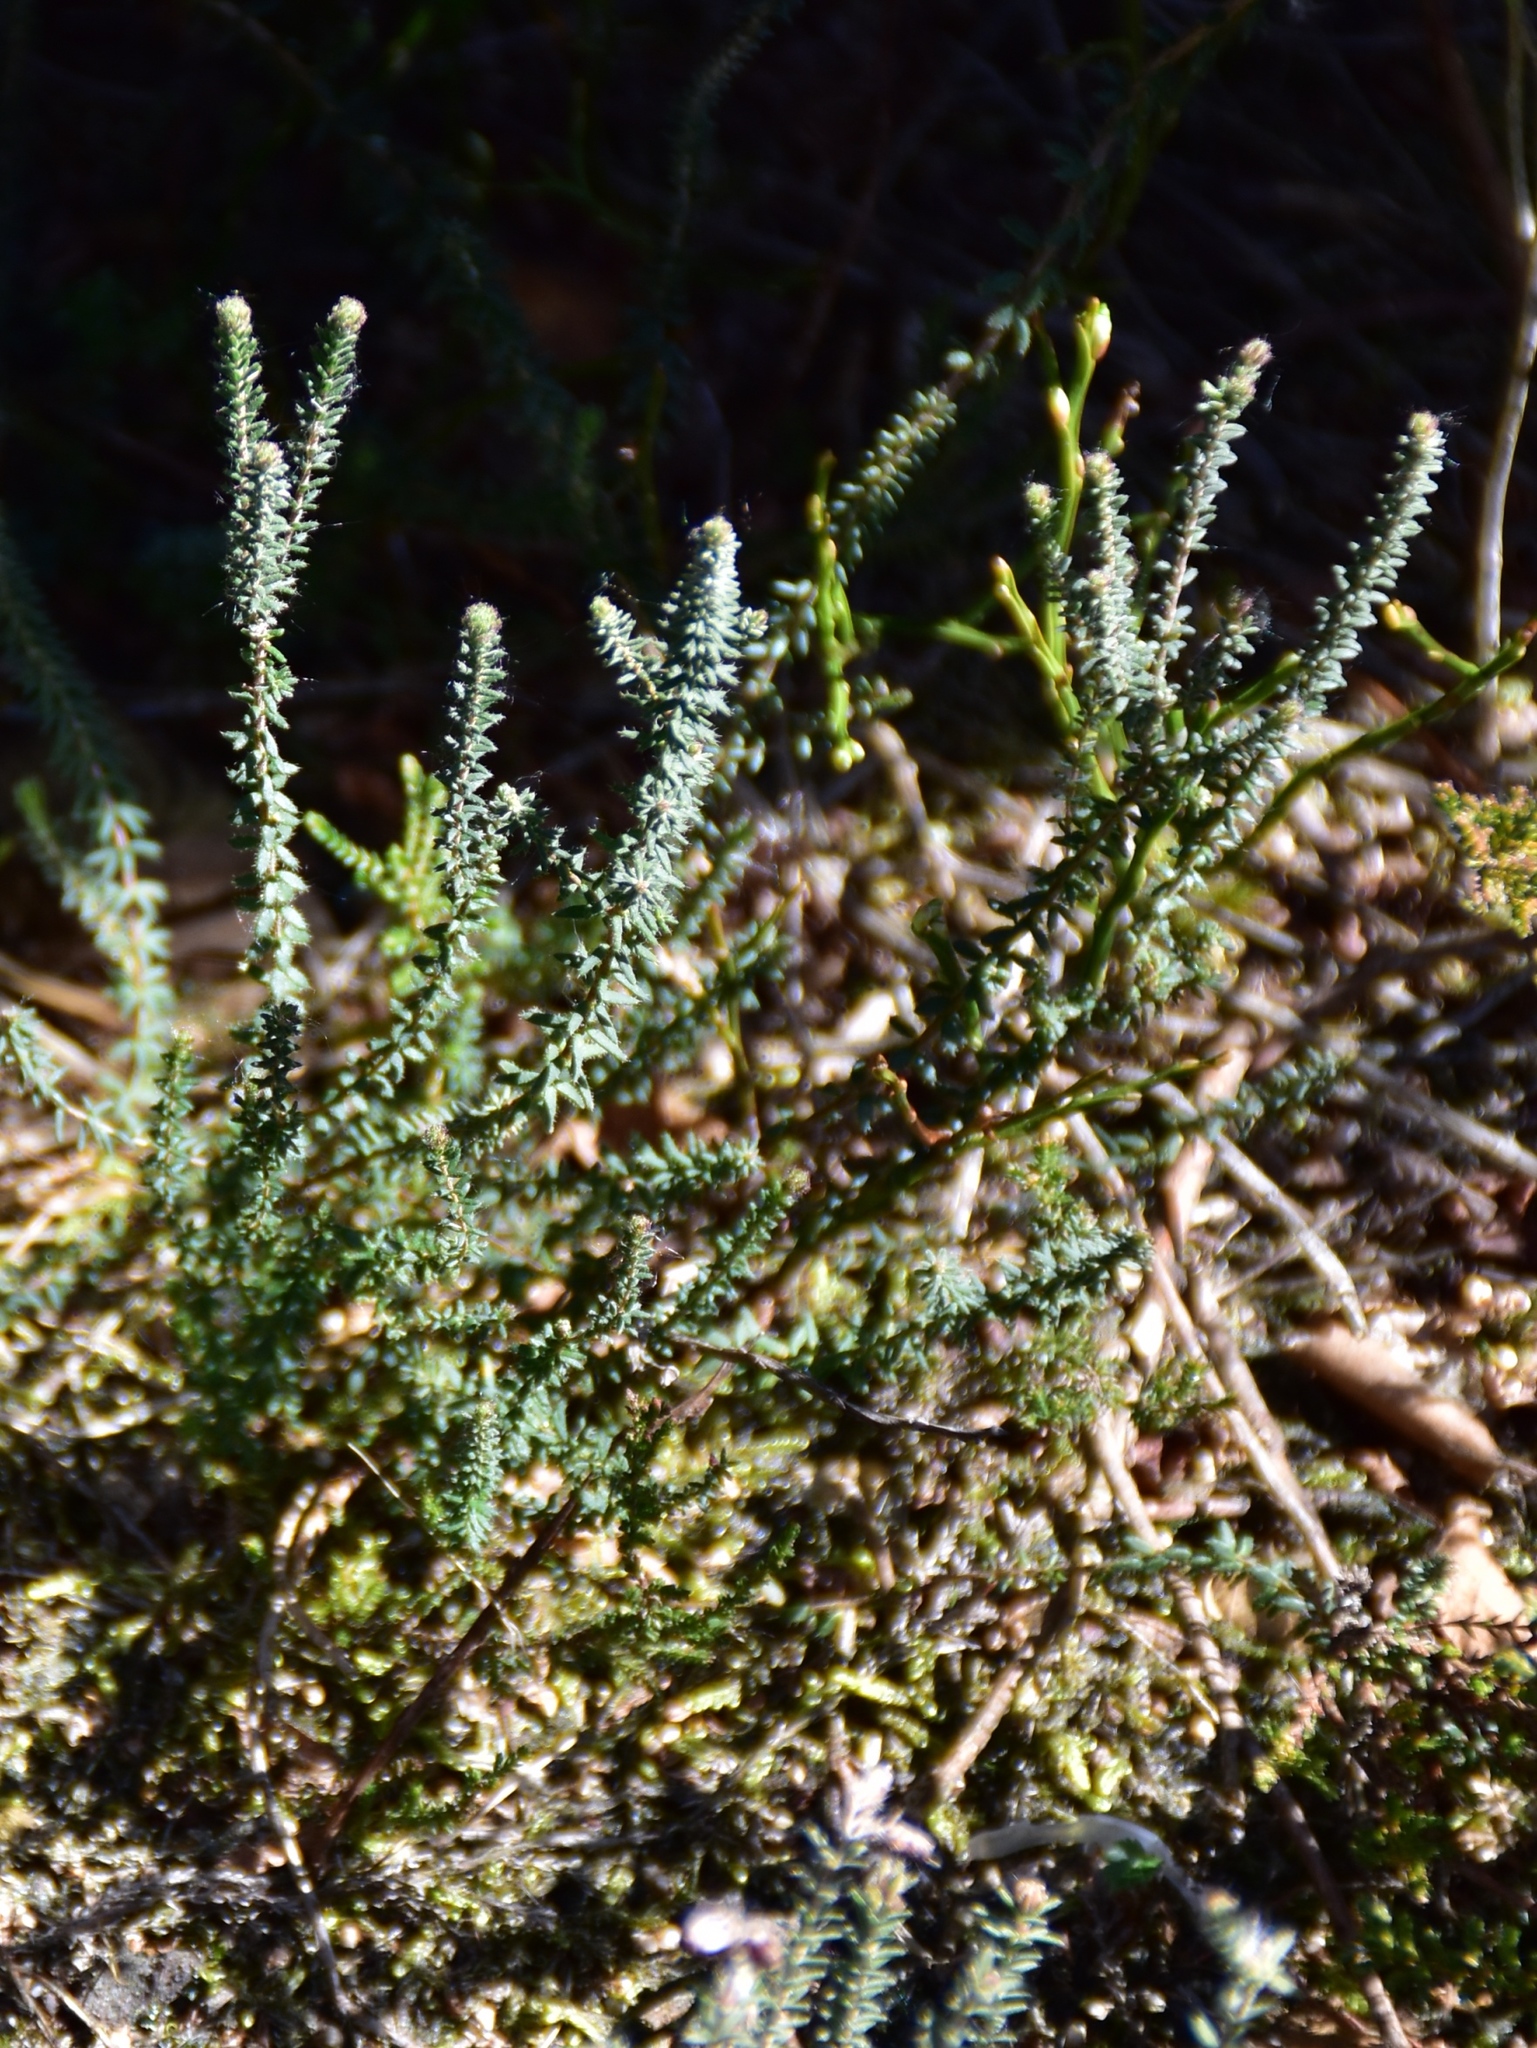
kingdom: Plantae
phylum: Tracheophyta
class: Magnoliopsida
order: Ericales
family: Ericaceae
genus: Erica
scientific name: Erica tetralix
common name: Cross-leaved heath
